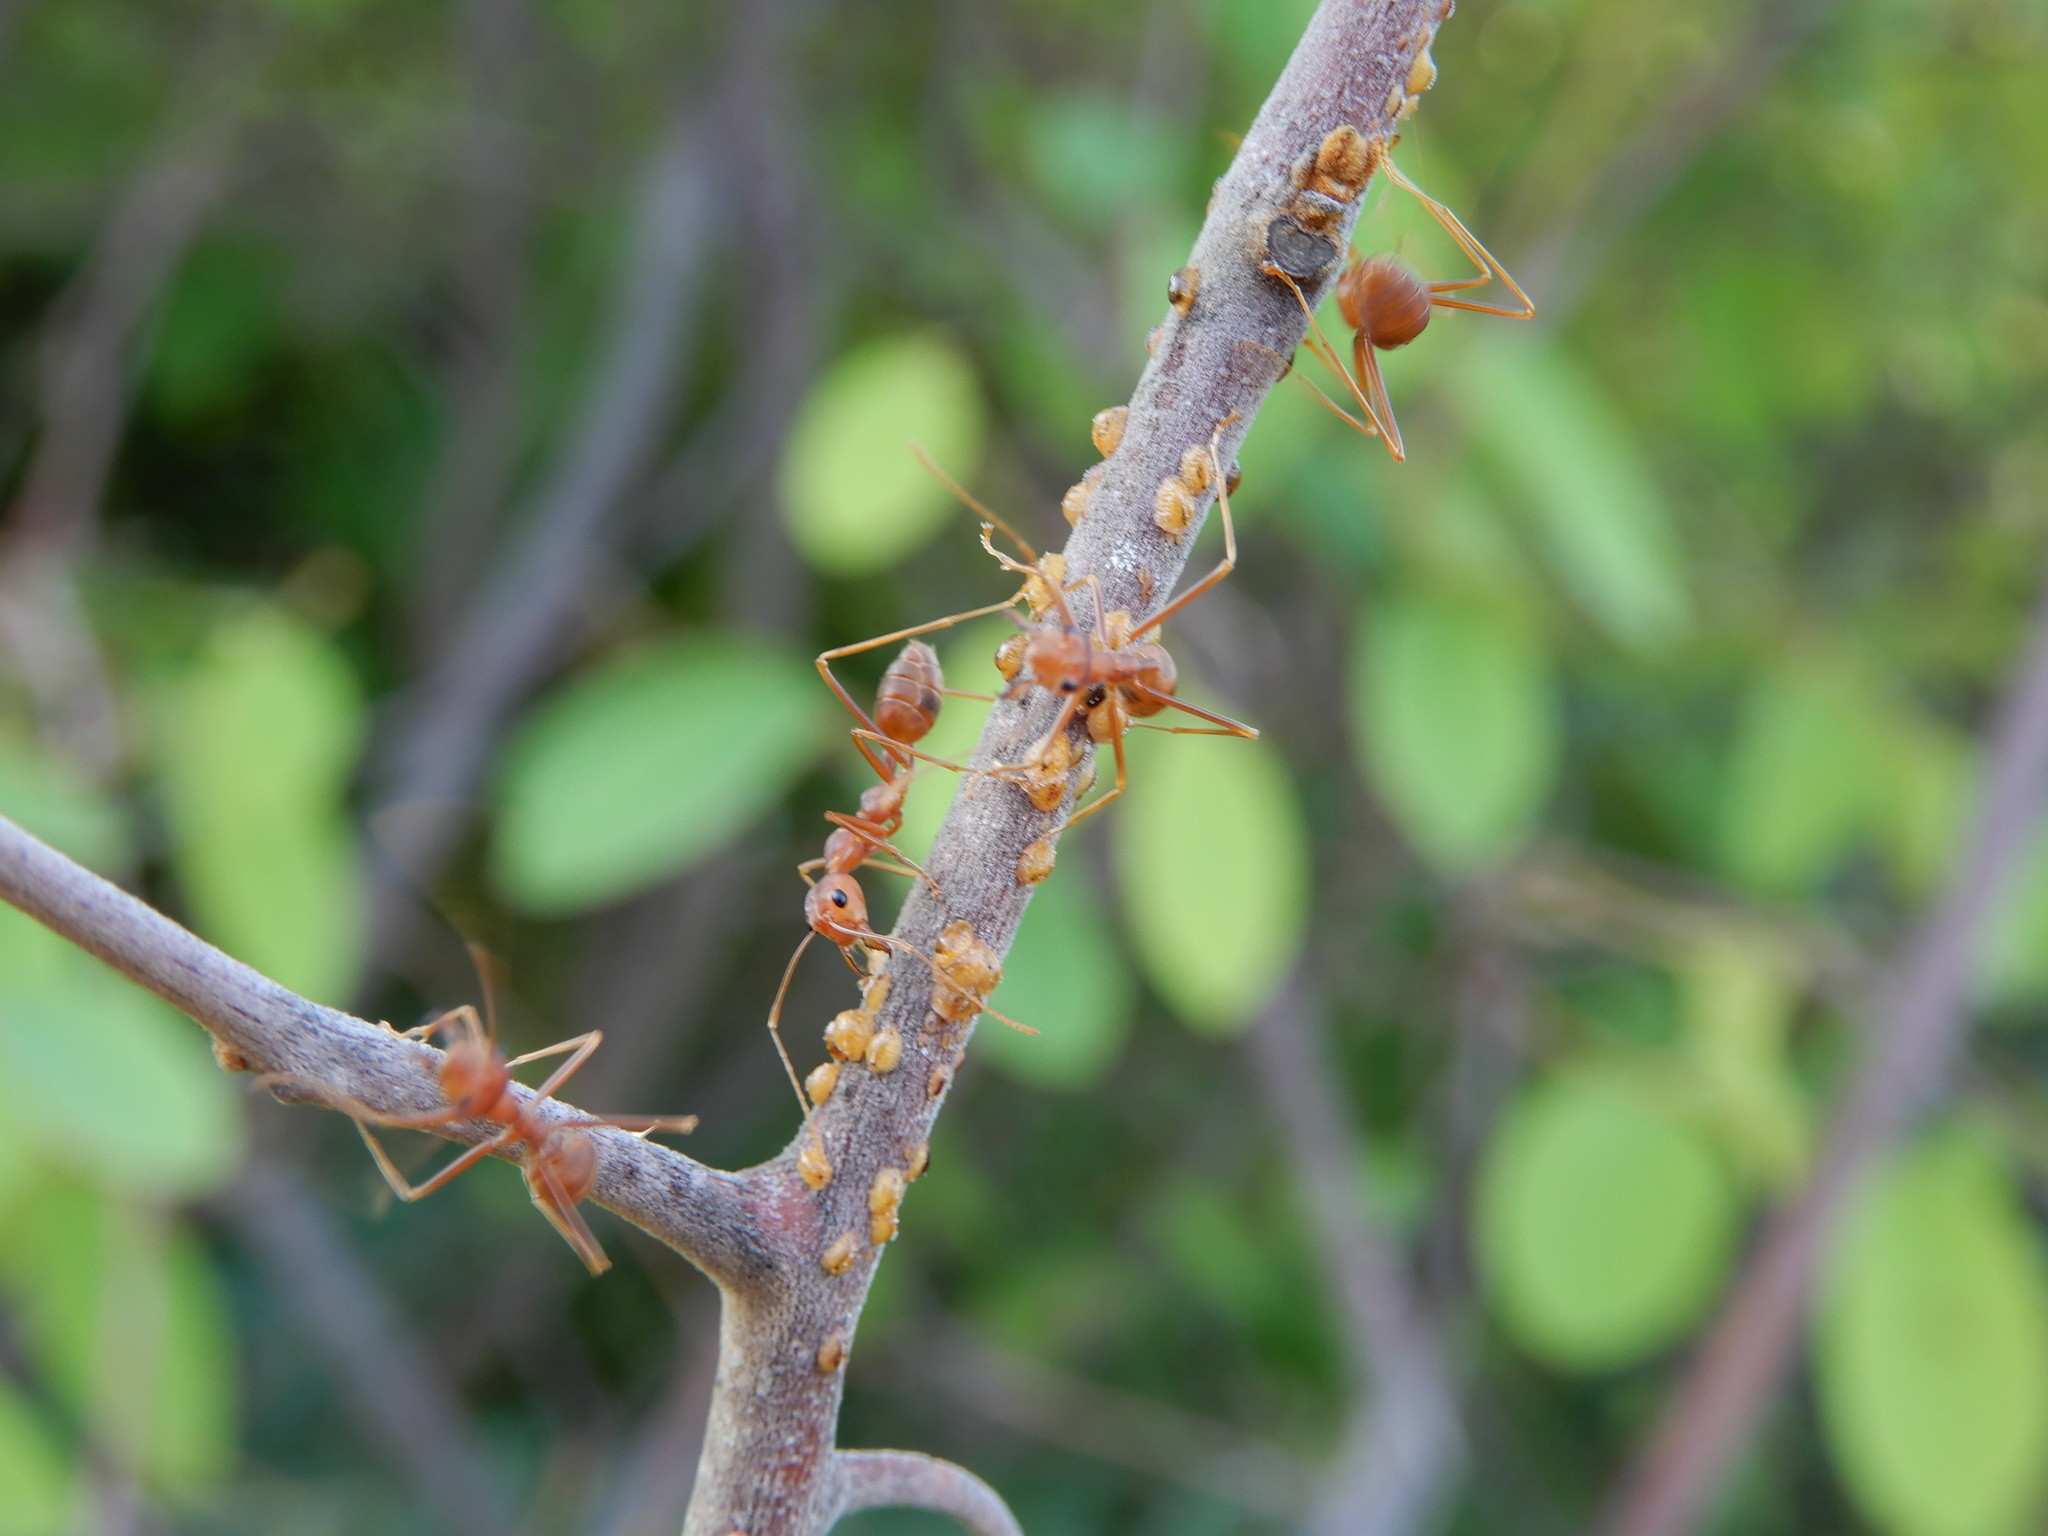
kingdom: Animalia
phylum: Arthropoda
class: Insecta
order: Hymenoptera
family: Formicidae
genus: Oecophylla
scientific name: Oecophylla smaragdina
